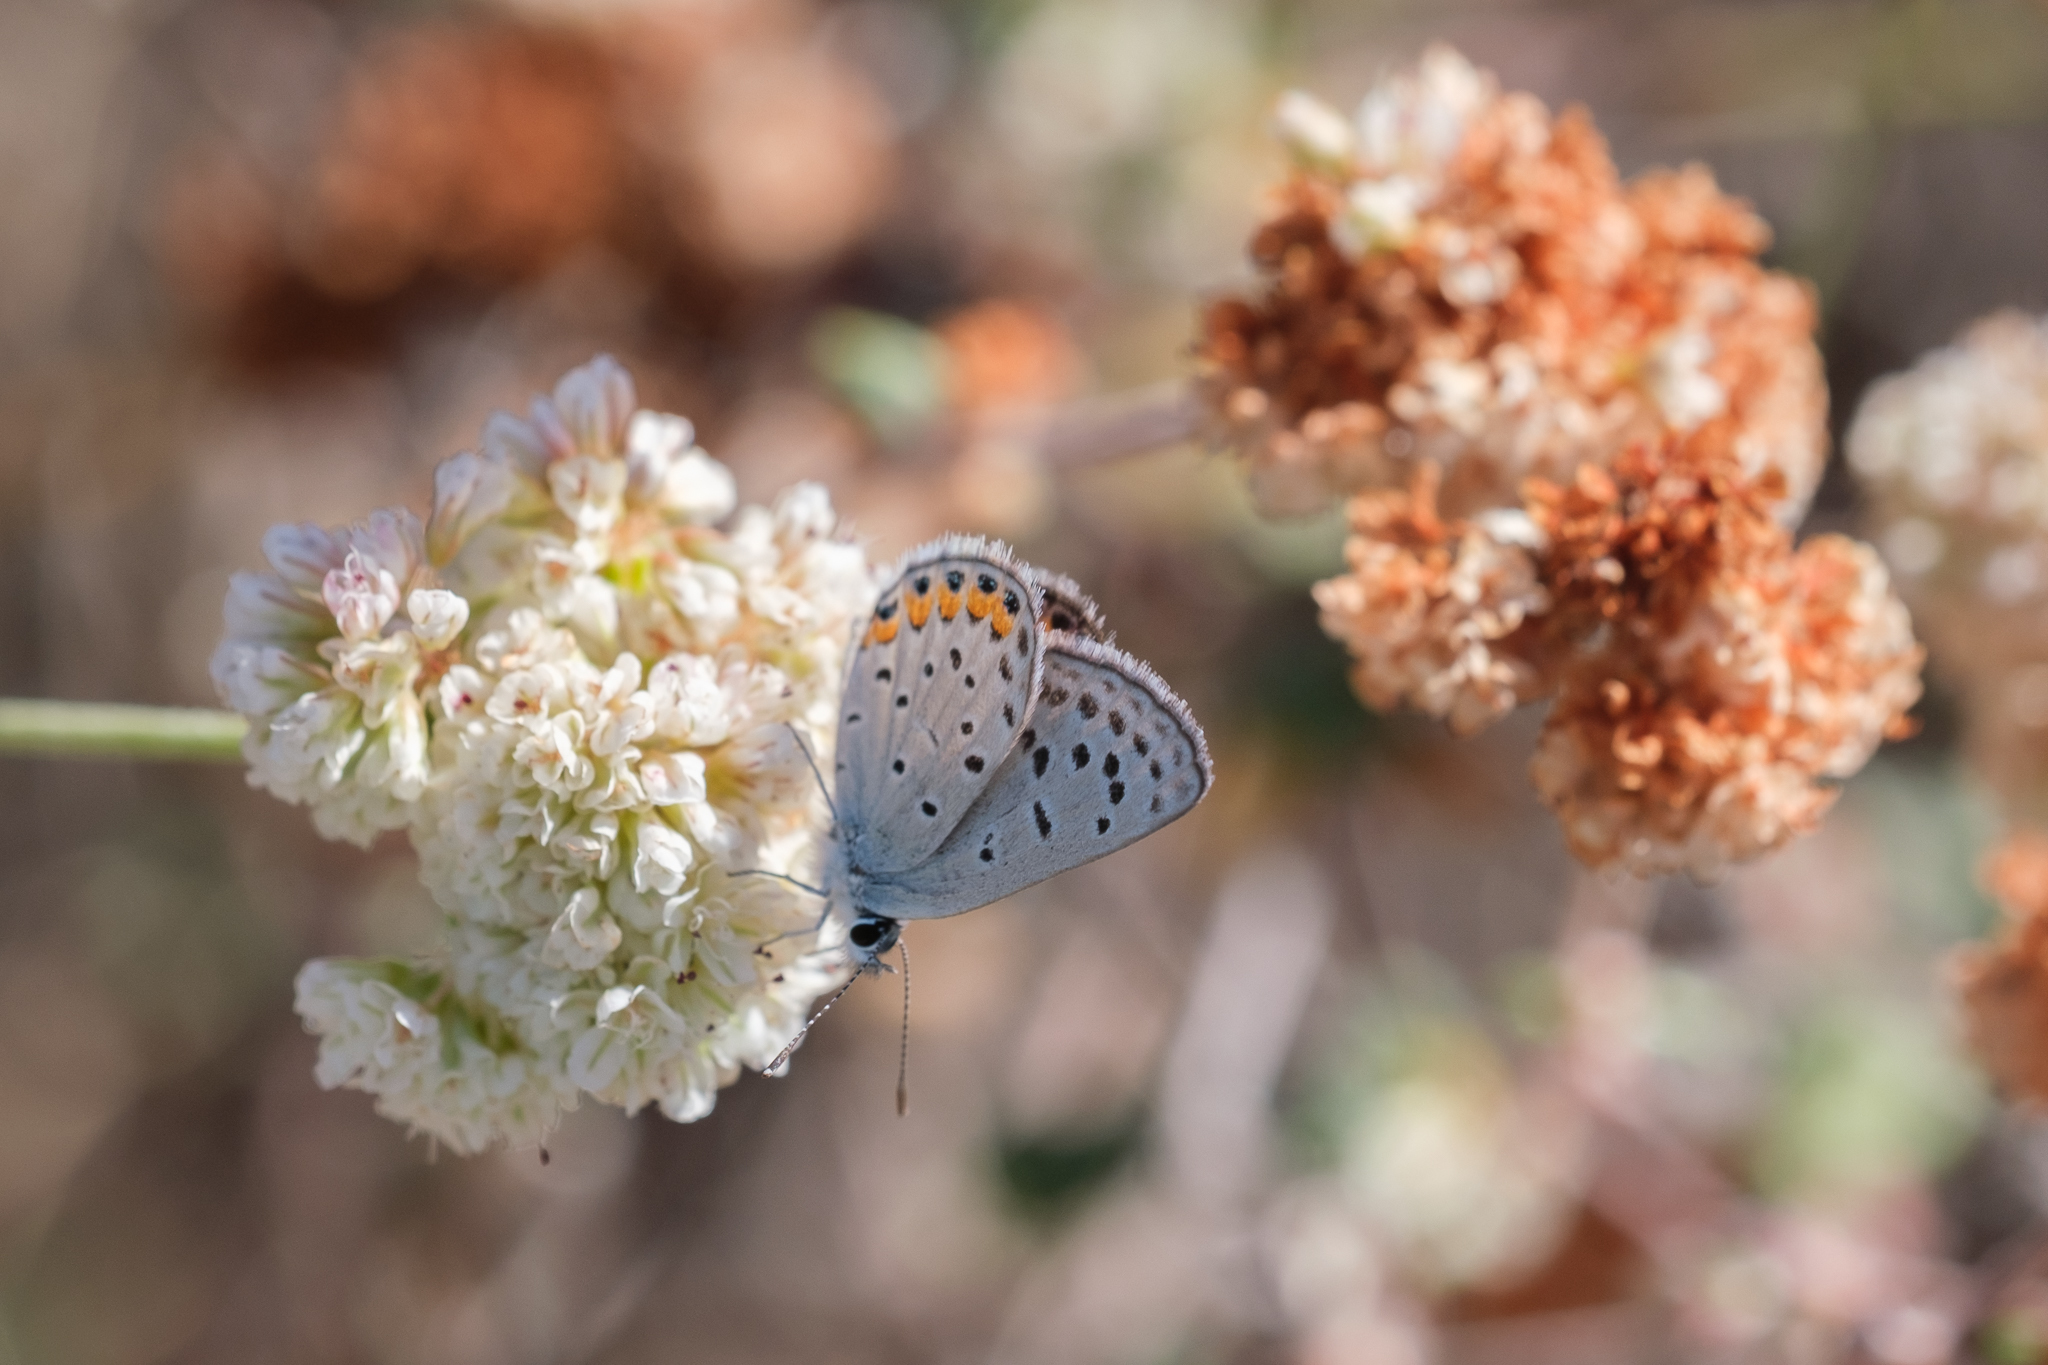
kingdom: Animalia
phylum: Arthropoda
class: Insecta
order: Lepidoptera
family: Lycaenidae
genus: Icaricia
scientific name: Icaricia acmon
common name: Acmon blue
